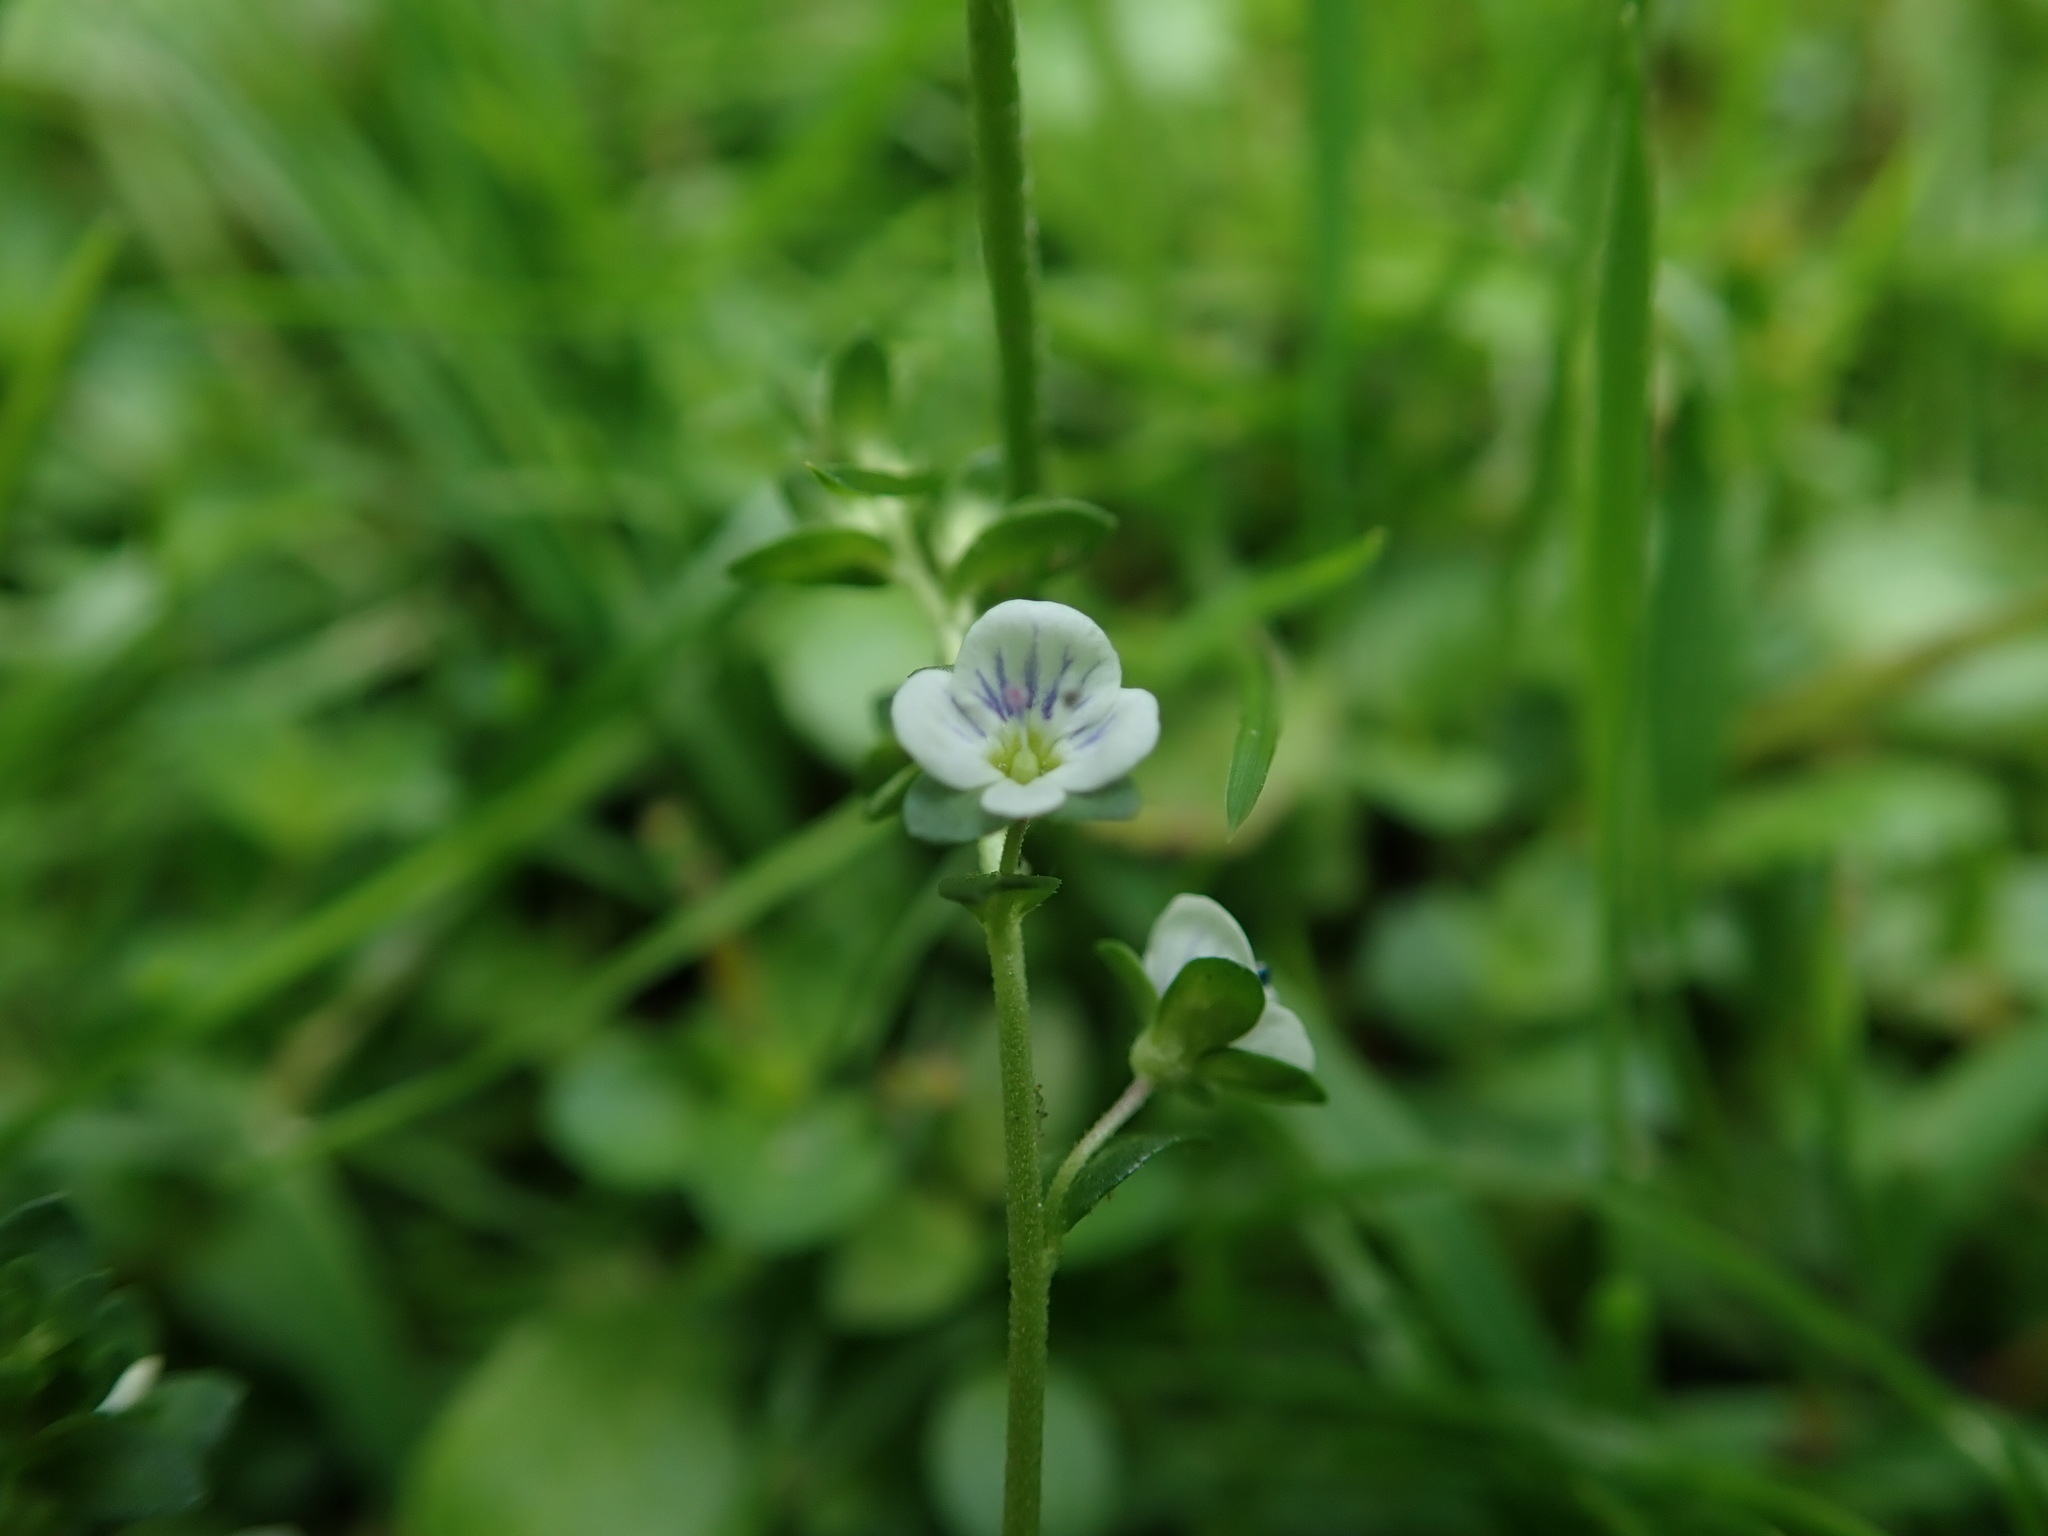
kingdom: Plantae
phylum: Tracheophyta
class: Magnoliopsida
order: Lamiales
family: Plantaginaceae
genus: Veronica
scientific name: Veronica serpyllifolia
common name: Thyme-leaved speedwell
